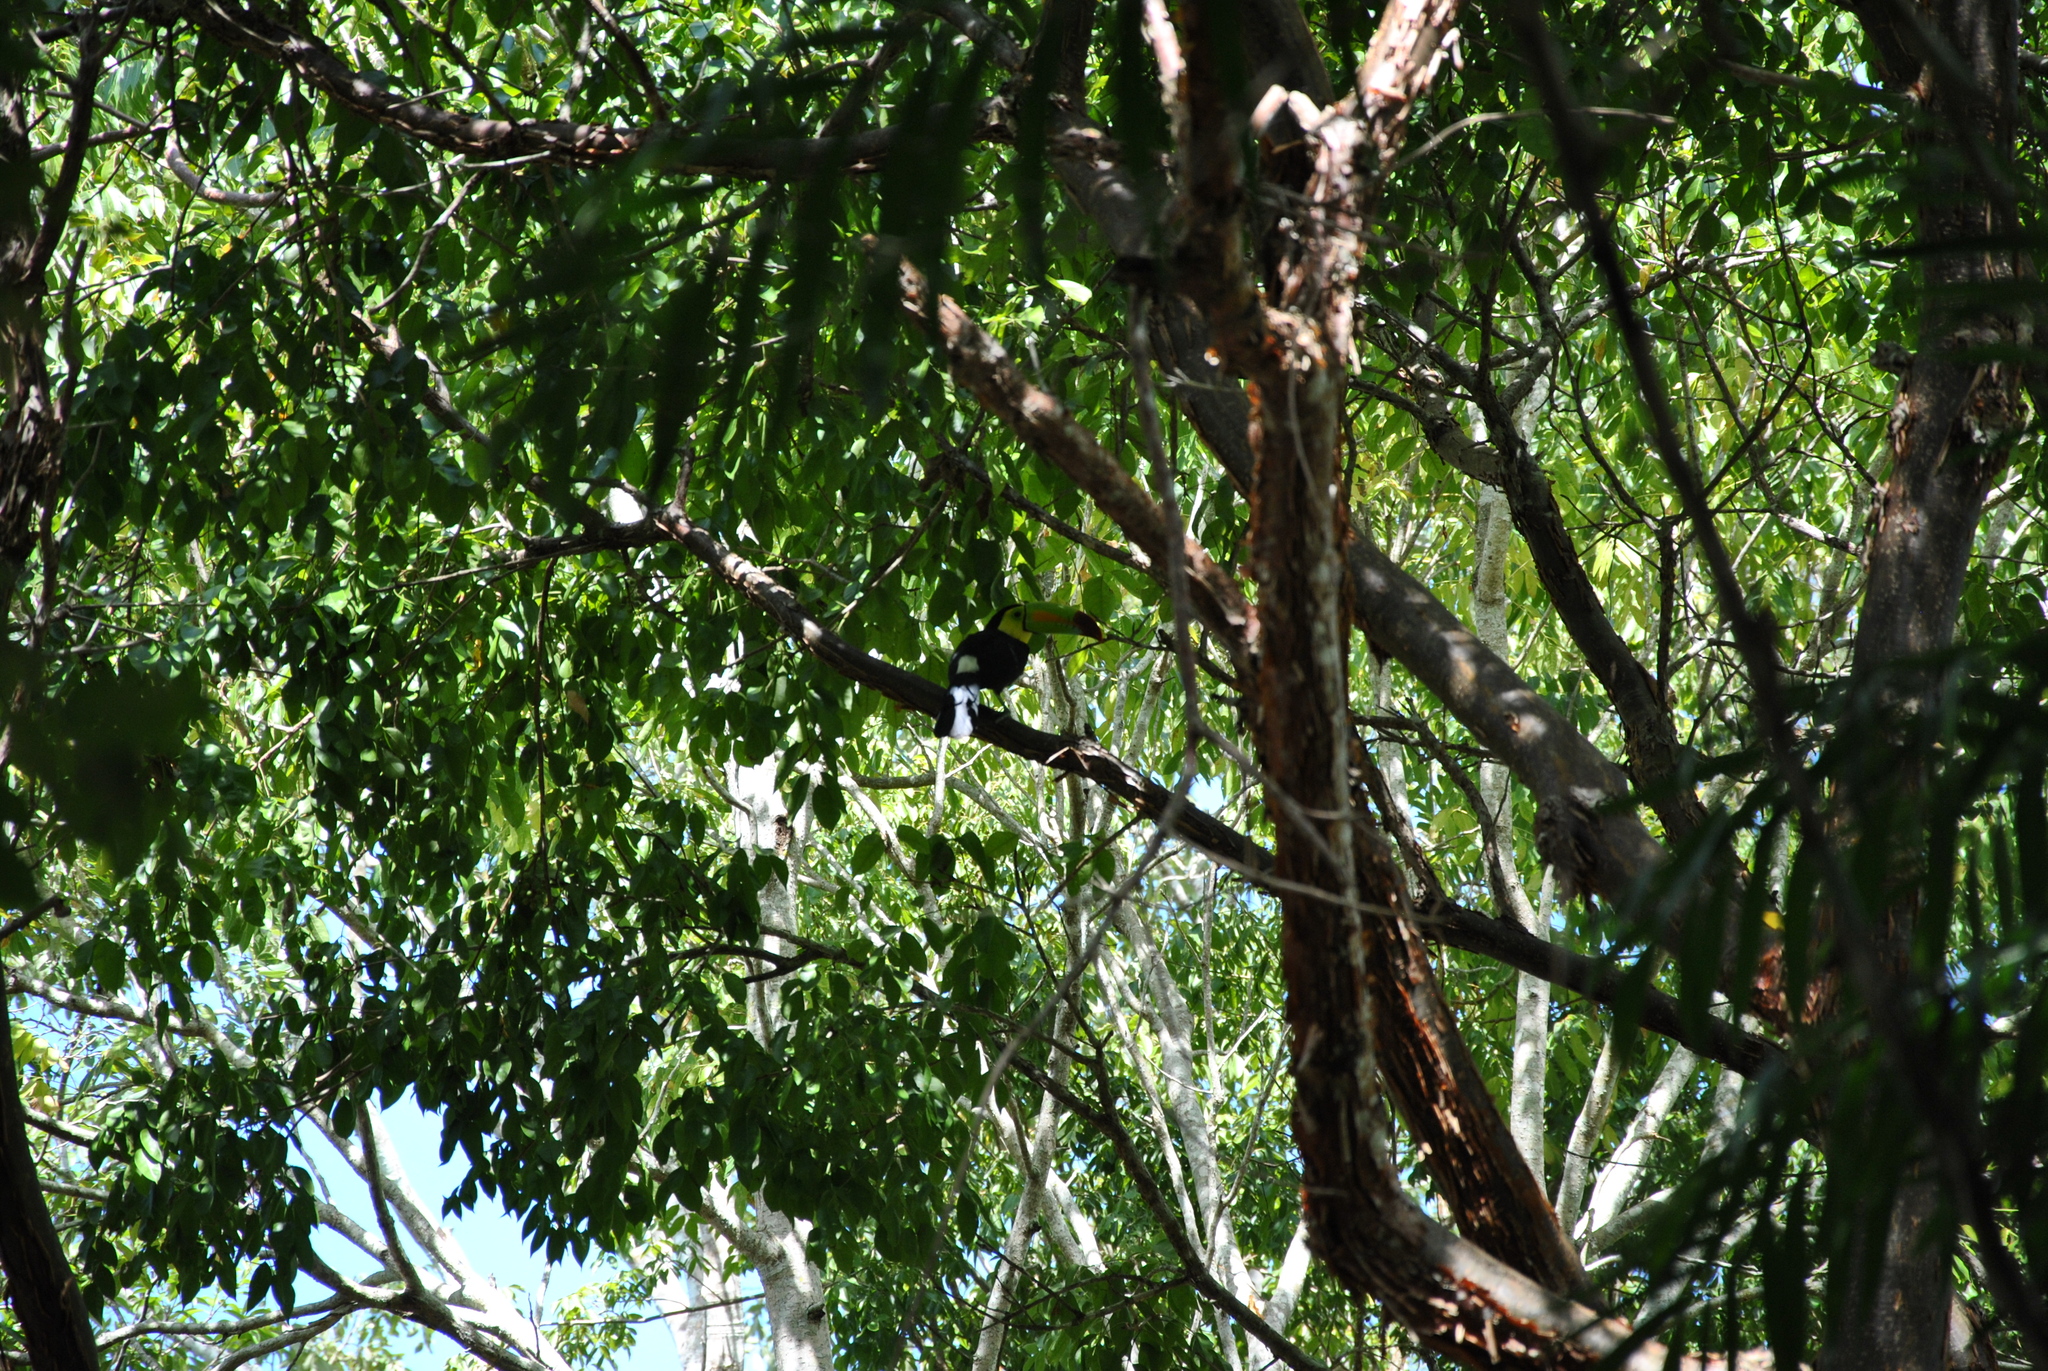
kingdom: Animalia
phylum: Chordata
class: Aves
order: Piciformes
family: Ramphastidae
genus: Ramphastos
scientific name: Ramphastos sulfuratus
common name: Keel-billed toucan
